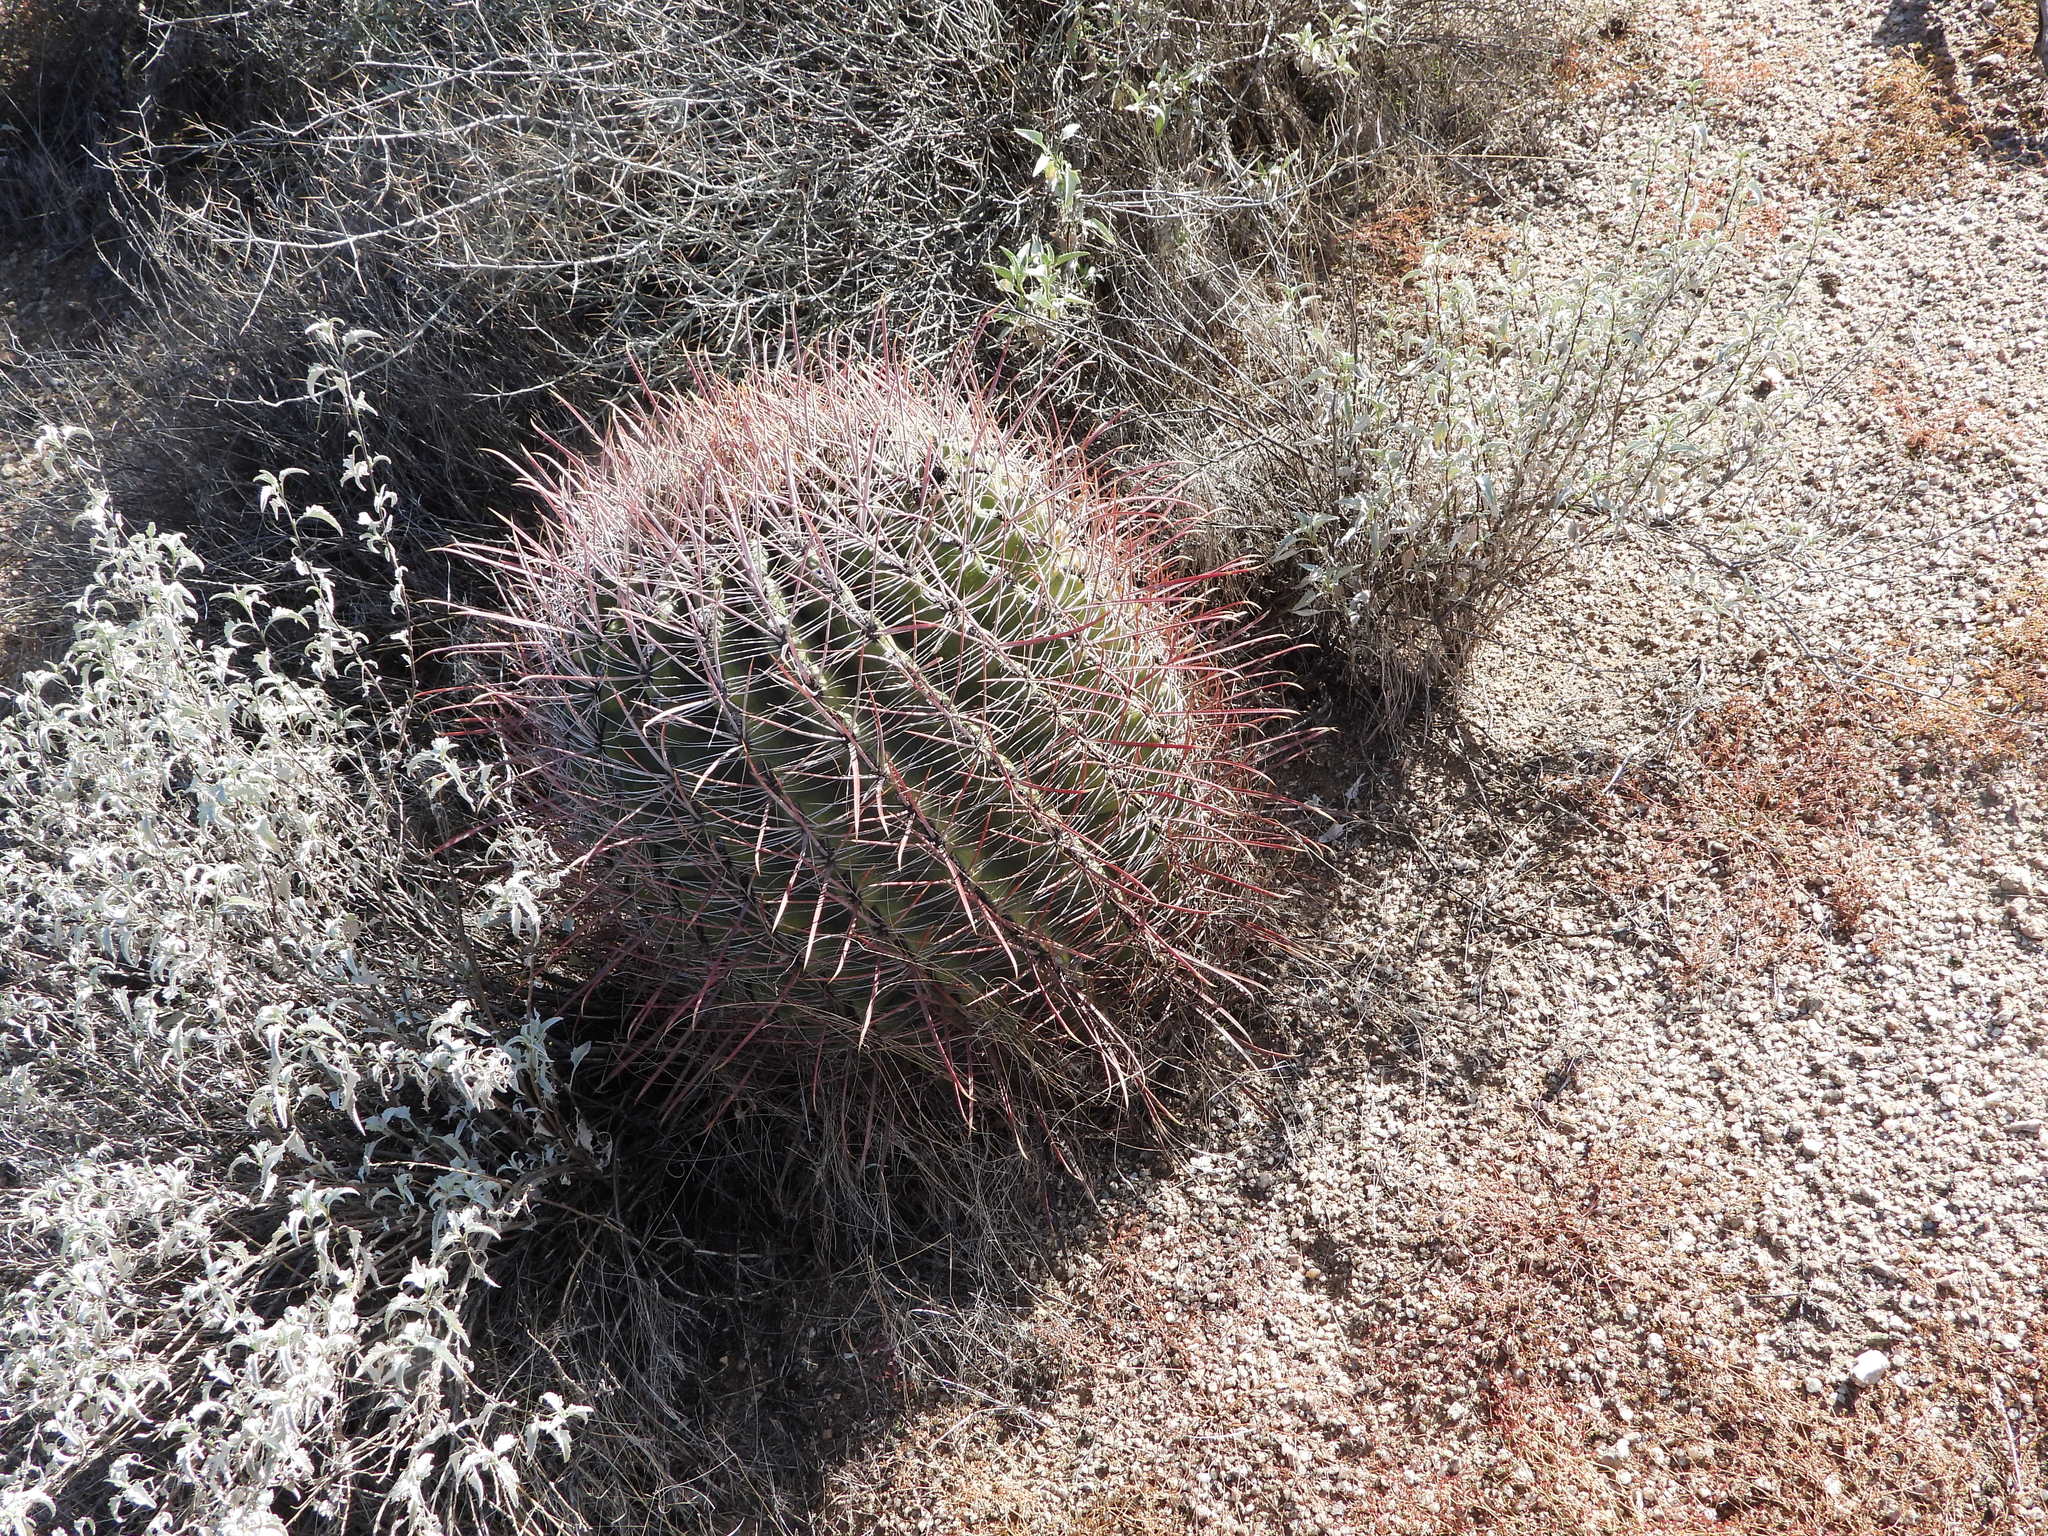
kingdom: Plantae
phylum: Tracheophyta
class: Magnoliopsida
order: Caryophyllales
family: Cactaceae
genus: Ferocactus
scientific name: Ferocactus cylindraceus
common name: California barrel cactus
